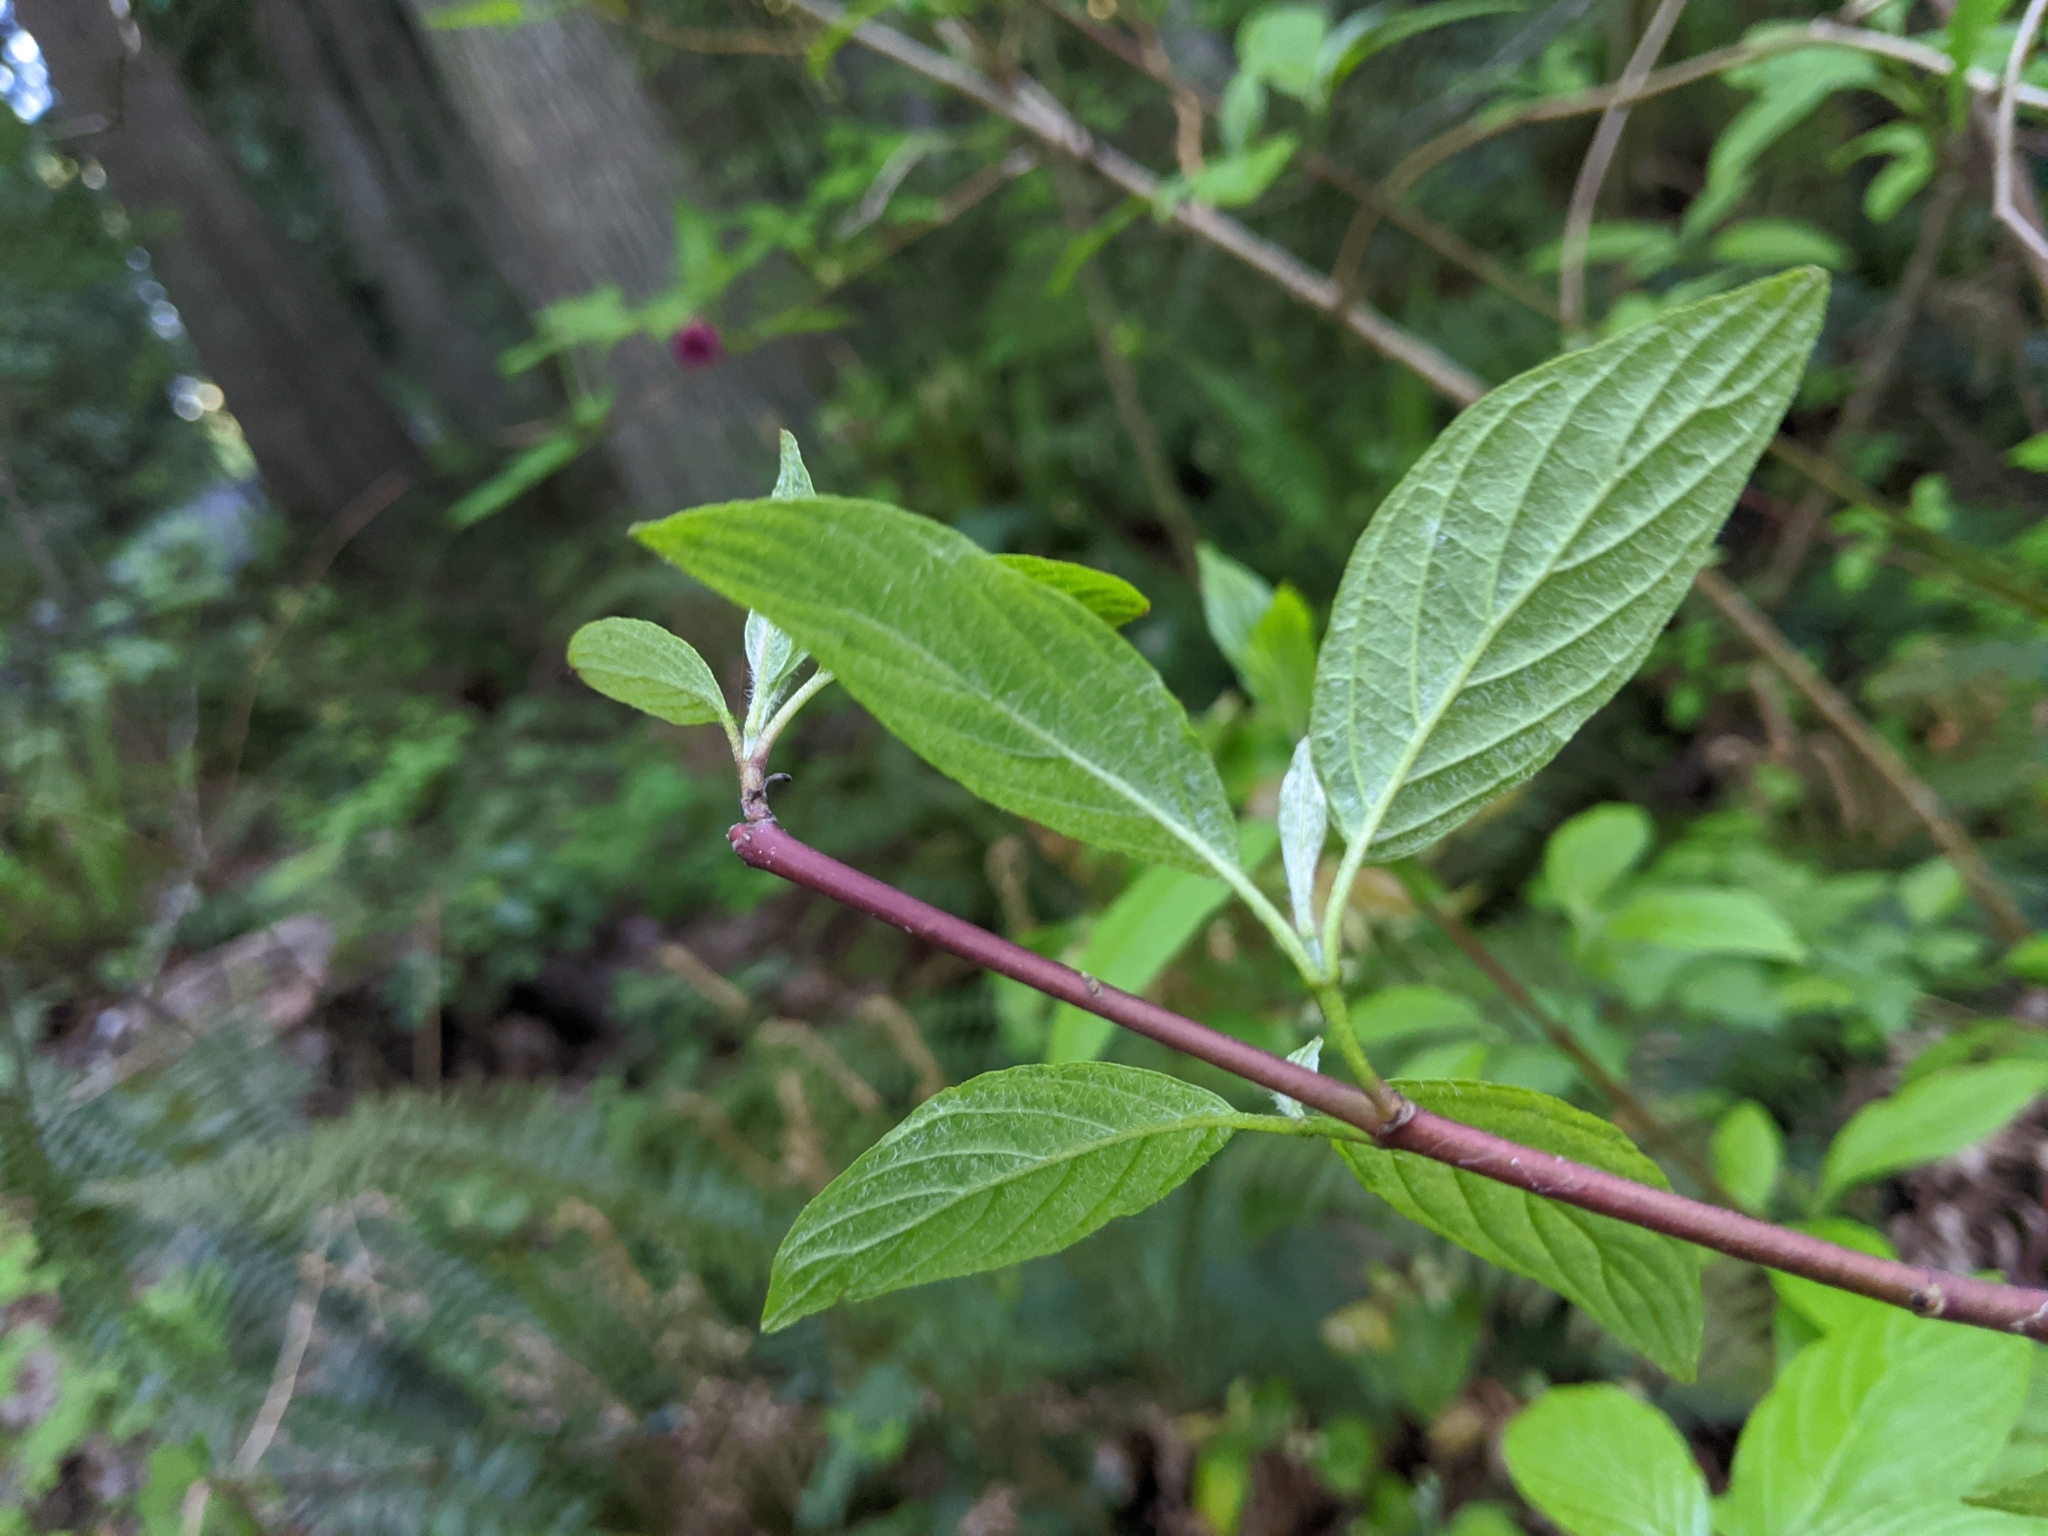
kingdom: Plantae
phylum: Tracheophyta
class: Magnoliopsida
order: Cornales
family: Cornaceae
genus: Cornus
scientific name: Cornus sericea
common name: Red-osier dogwood
